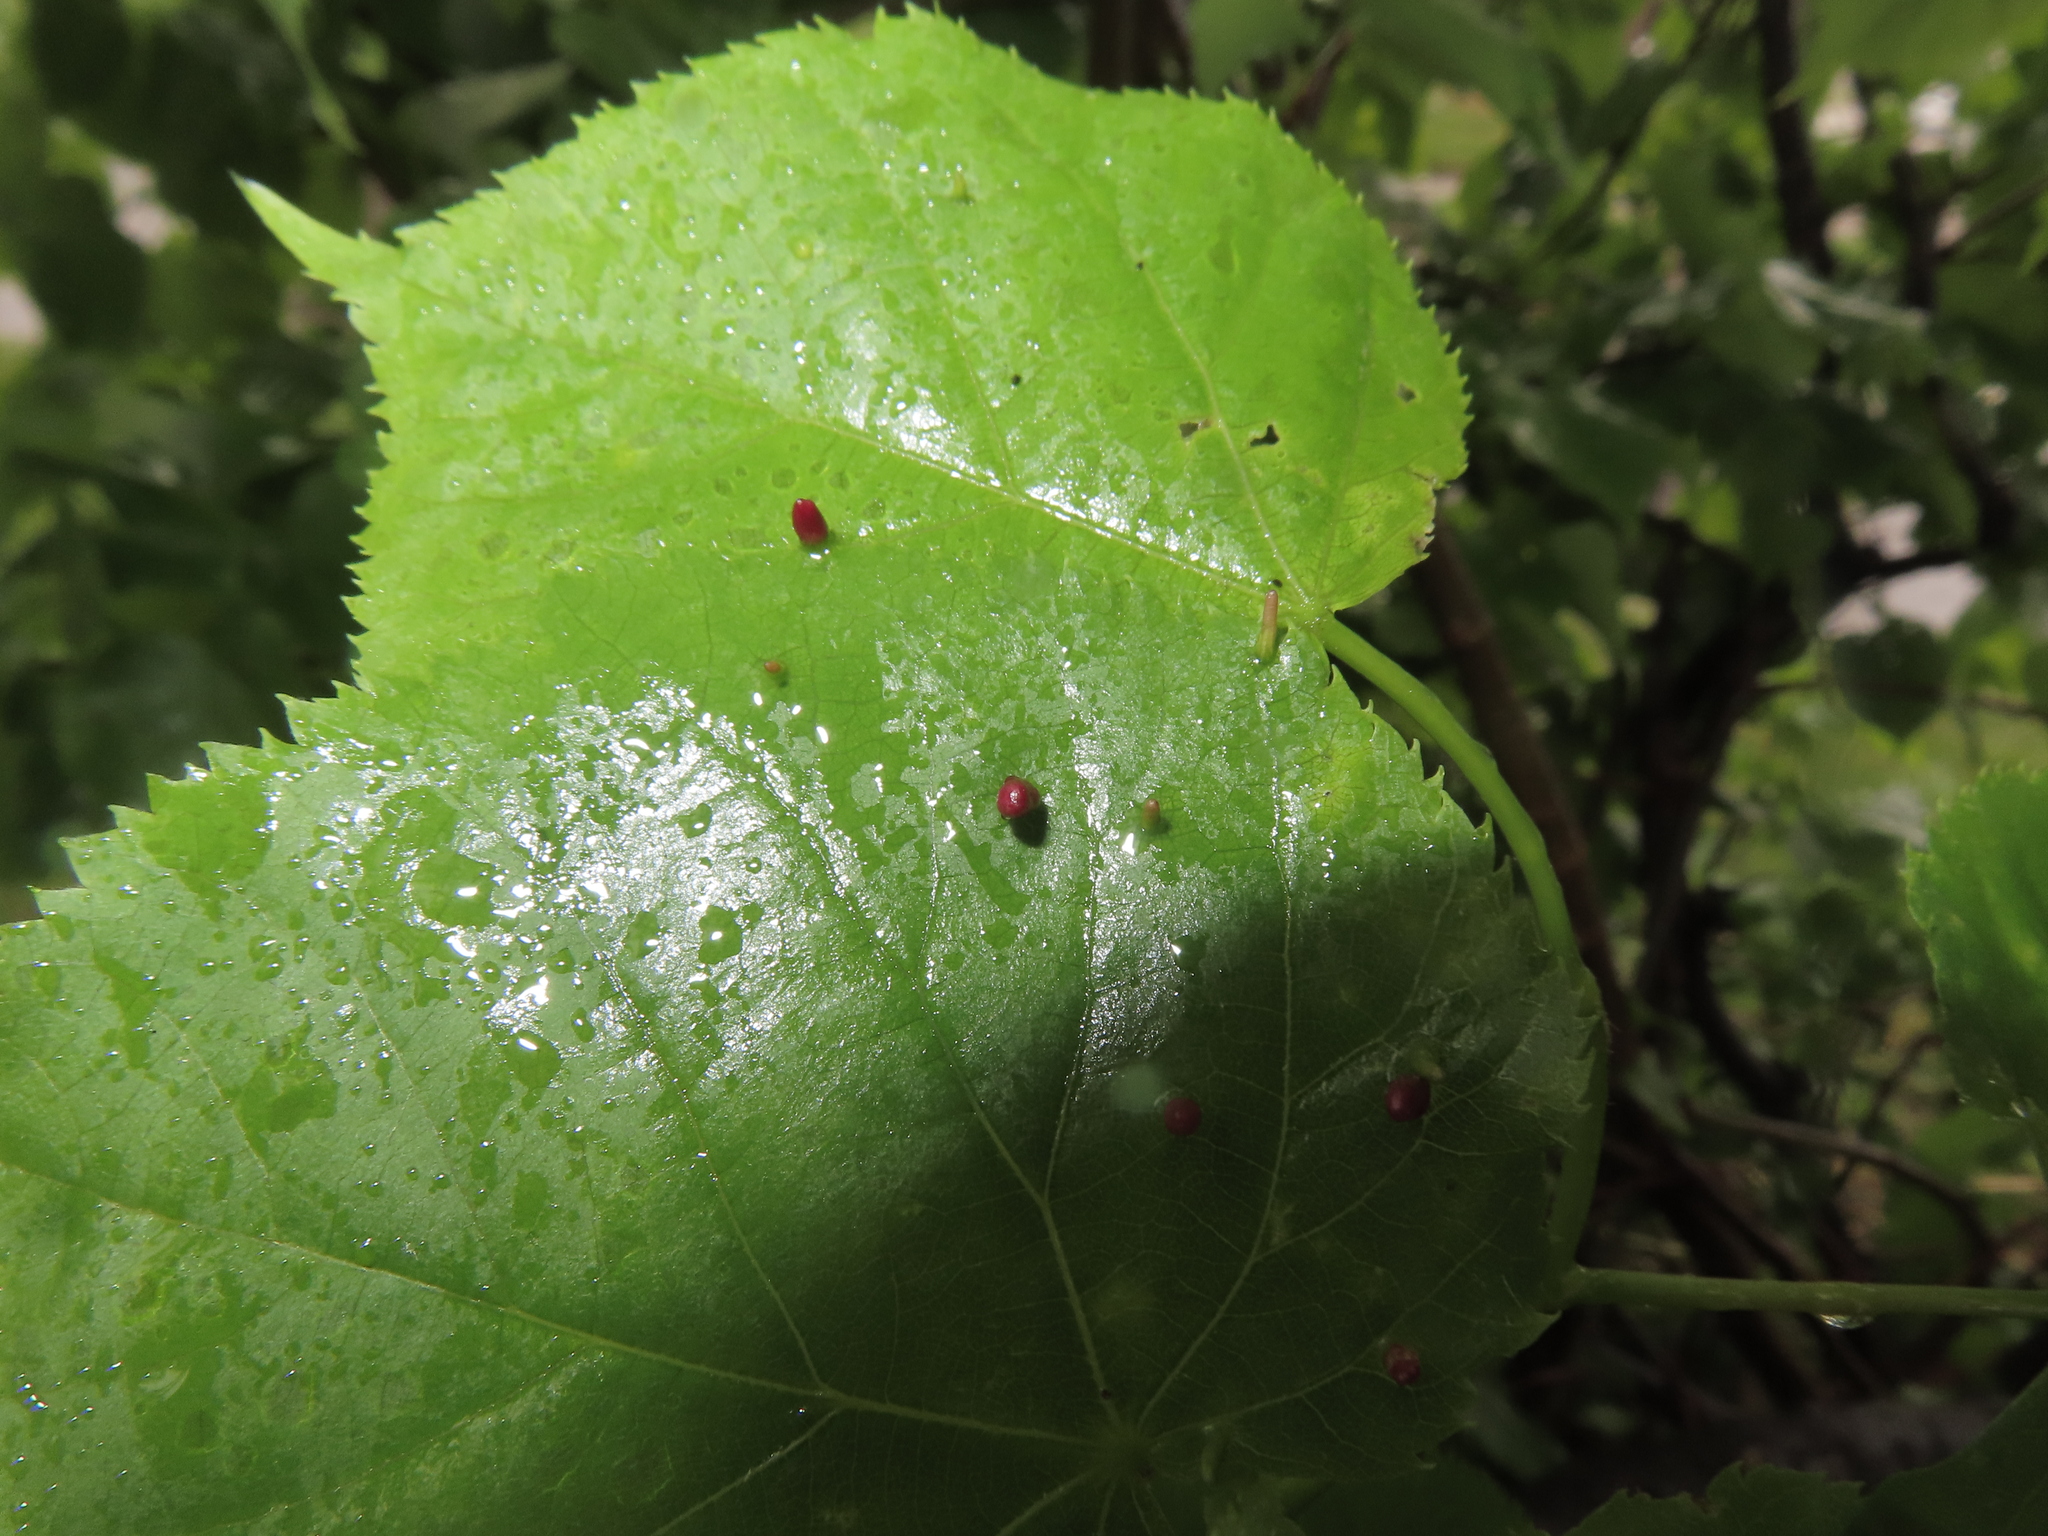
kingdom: Animalia
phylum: Arthropoda
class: Arachnida
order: Trombidiformes
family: Eriophyidae
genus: Eriophyes
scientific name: Eriophyes tiliae
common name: Red nail gall mite
